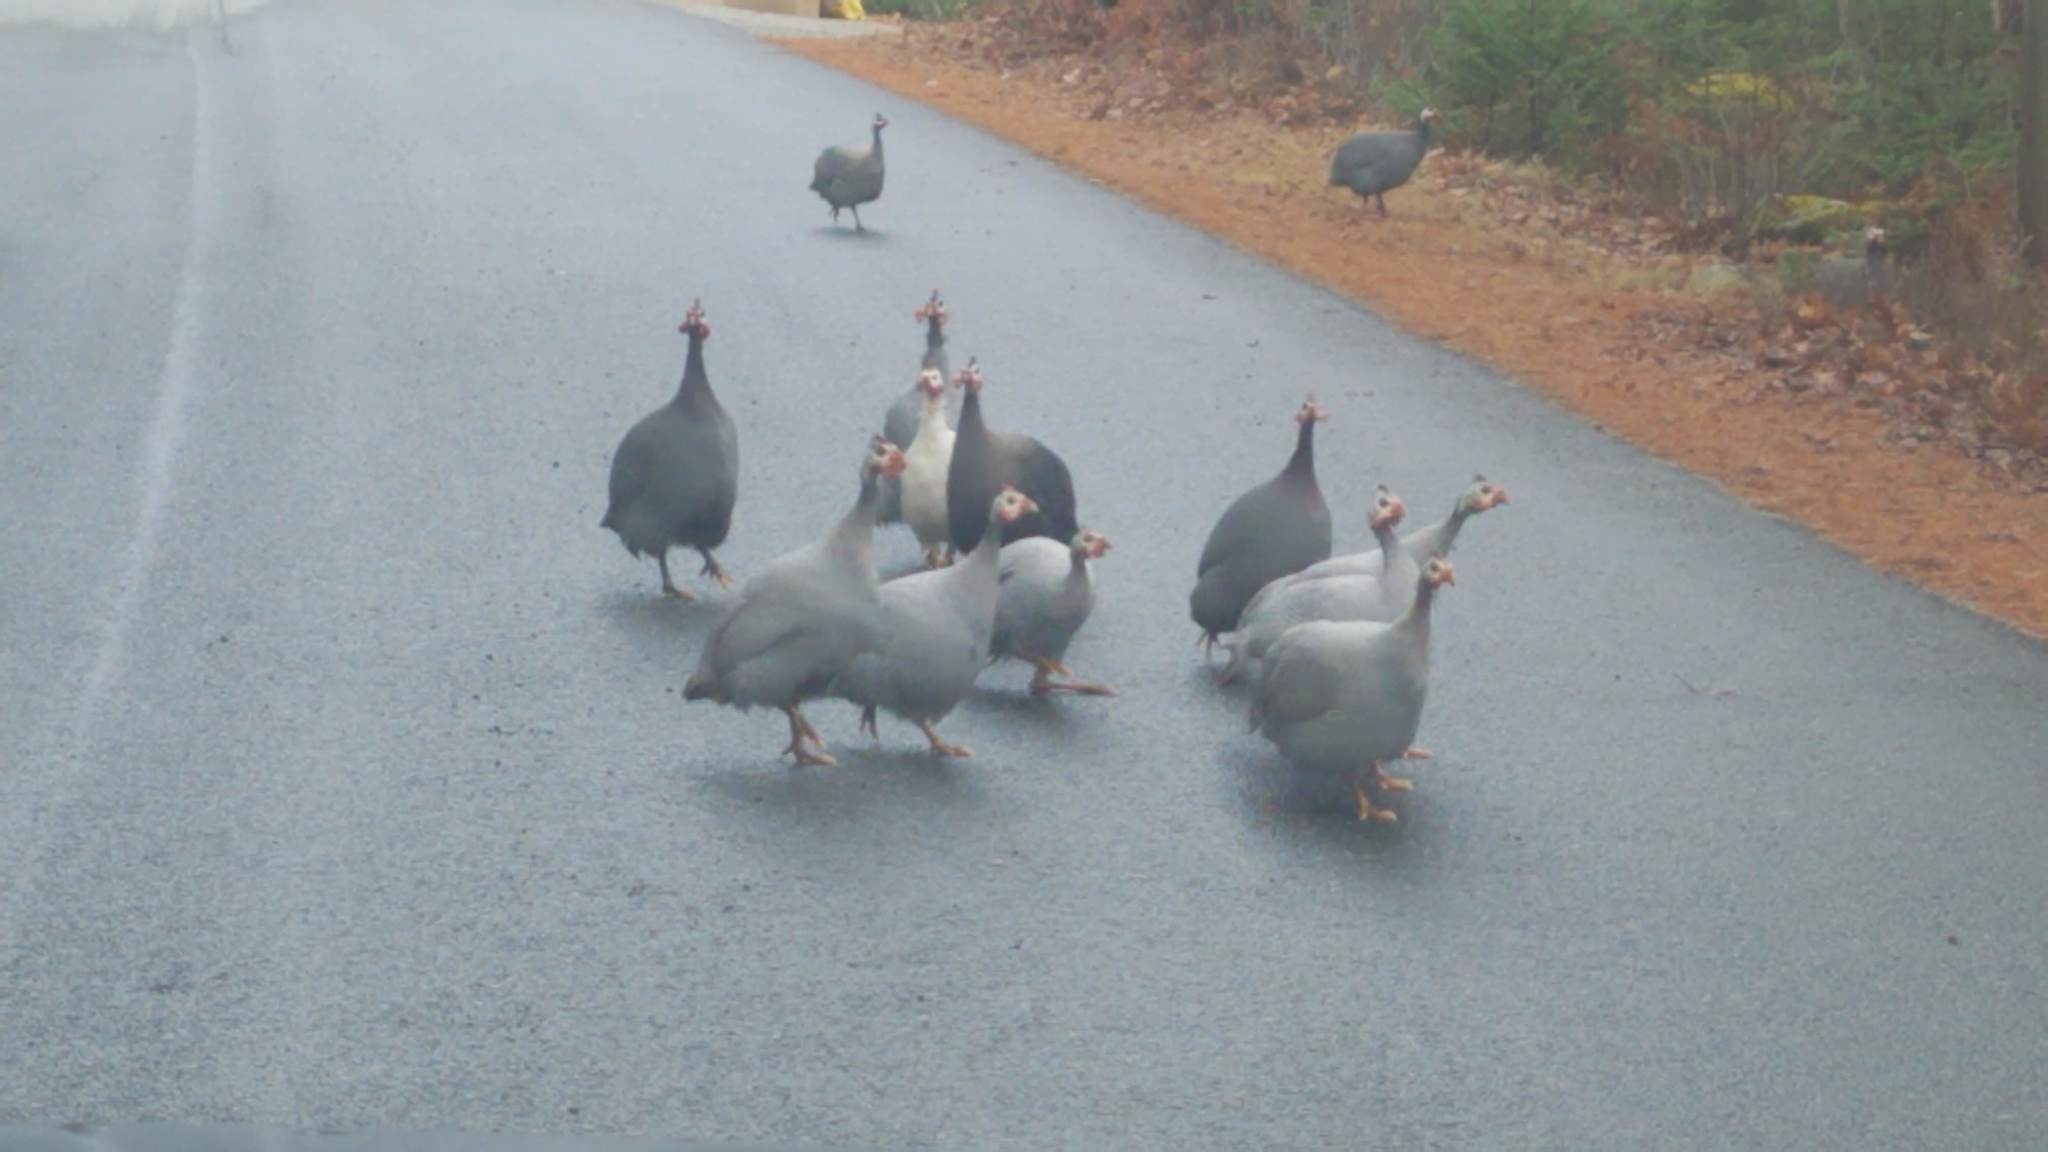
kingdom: Animalia
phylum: Chordata
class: Aves
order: Galliformes
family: Numididae
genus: Numida
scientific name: Numida meleagris
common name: Helmeted guineafowl
